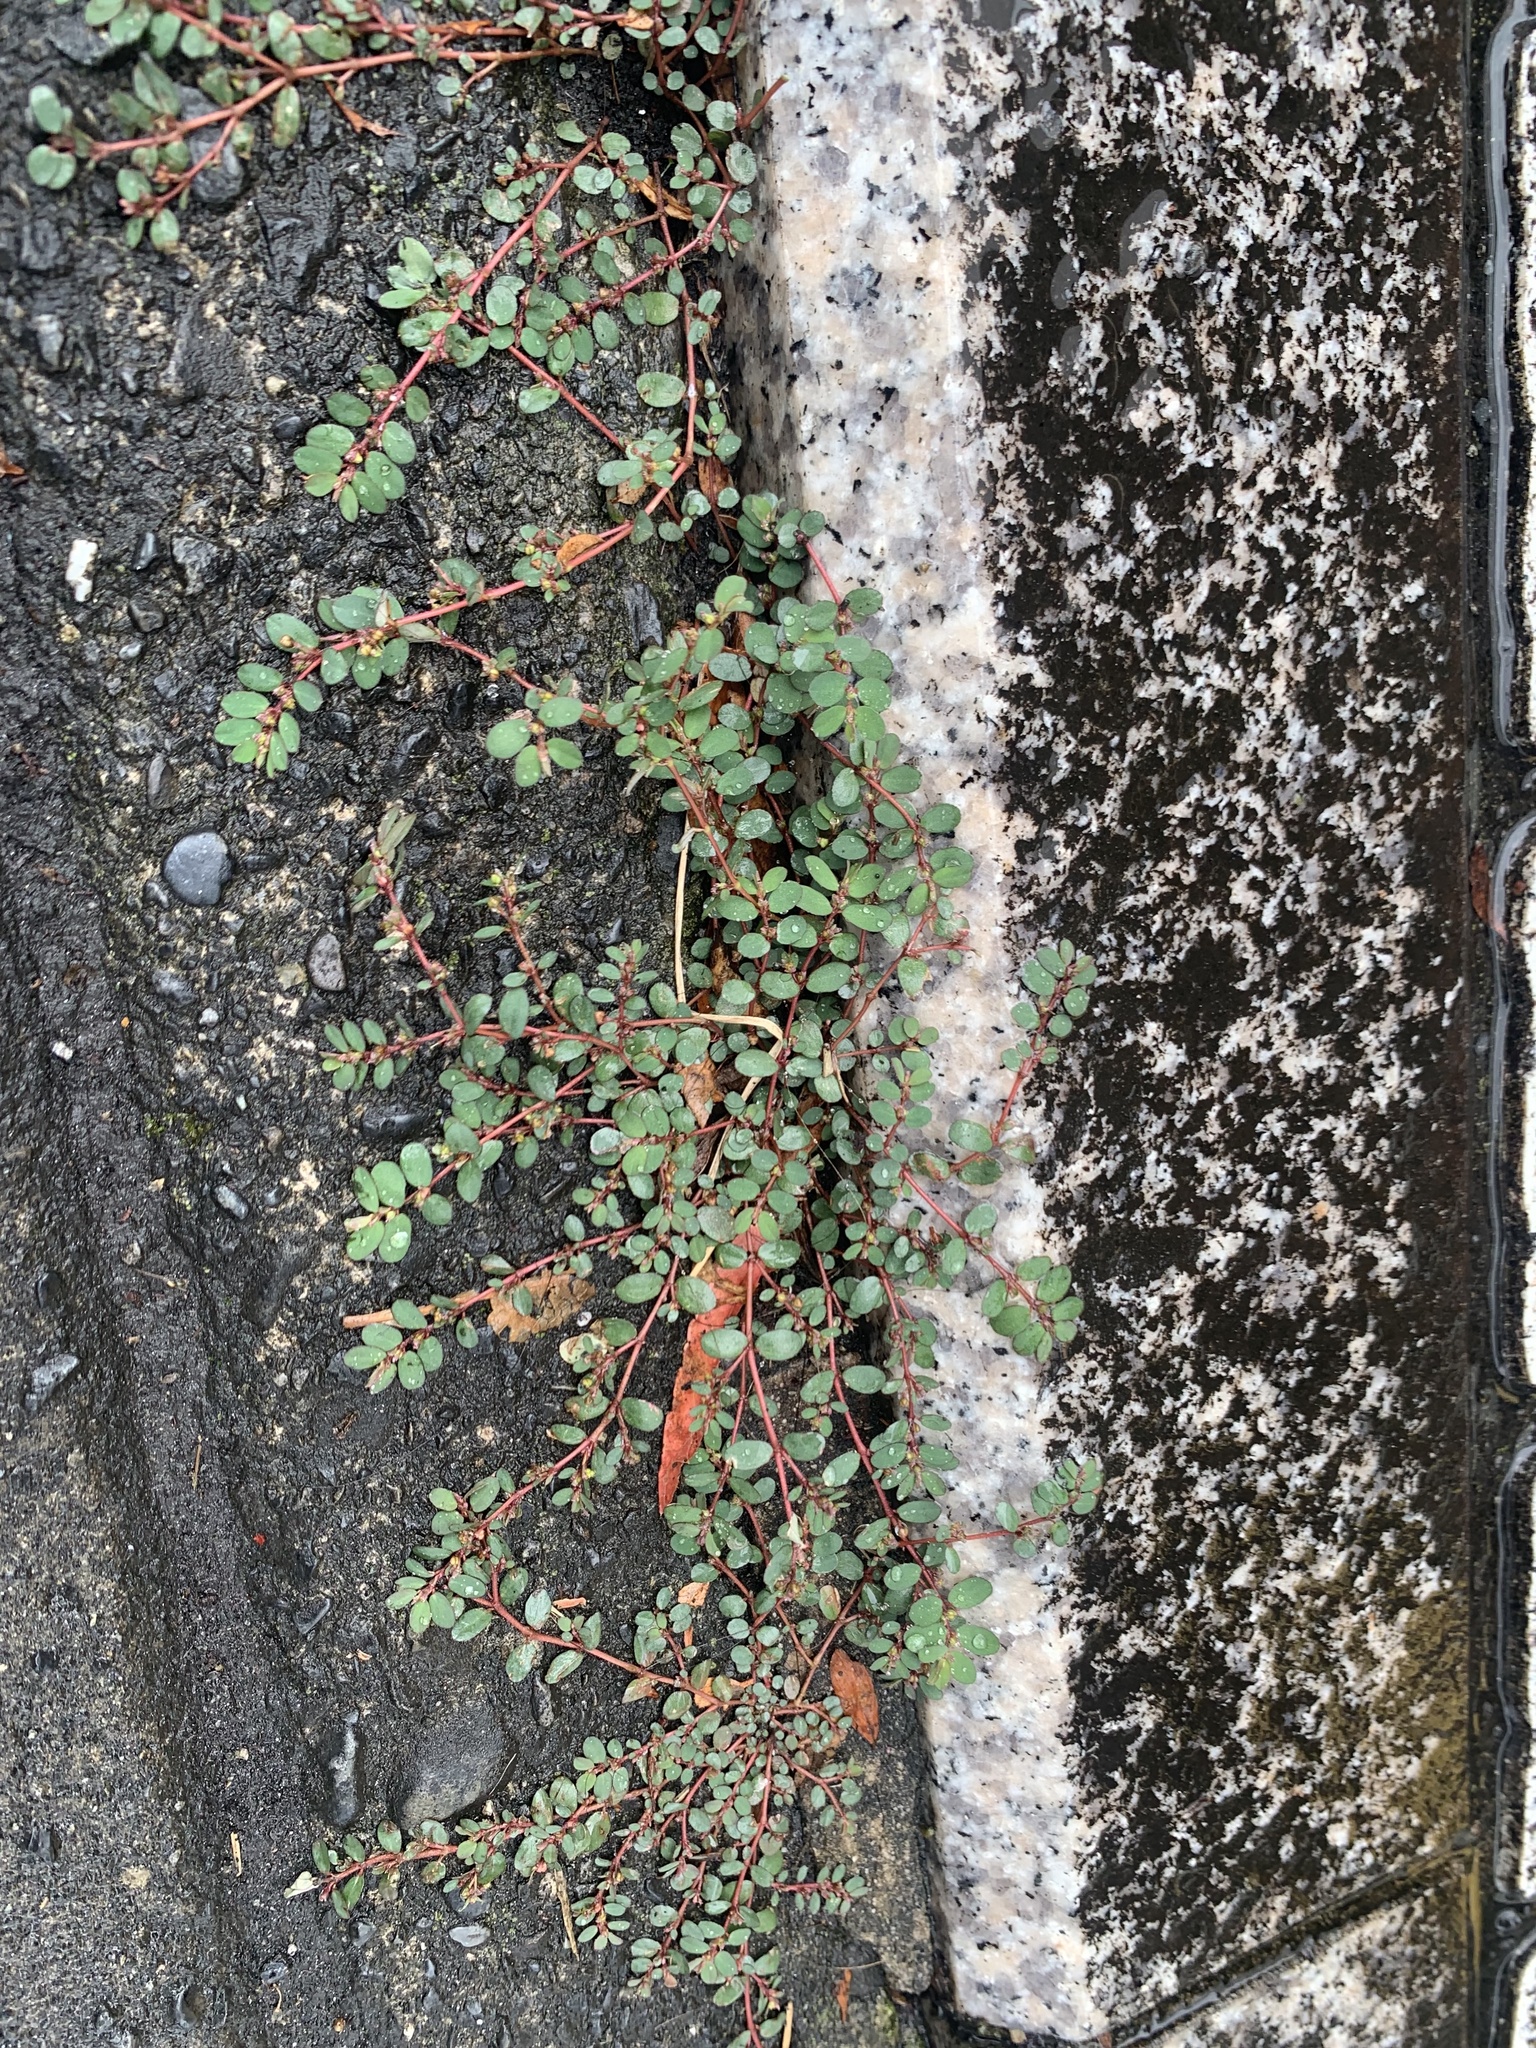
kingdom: Plantae
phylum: Tracheophyta
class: Magnoliopsida
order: Malpighiales
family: Euphorbiaceae
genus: Euphorbia
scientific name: Euphorbia prostrata
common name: Prostrate sandmat
